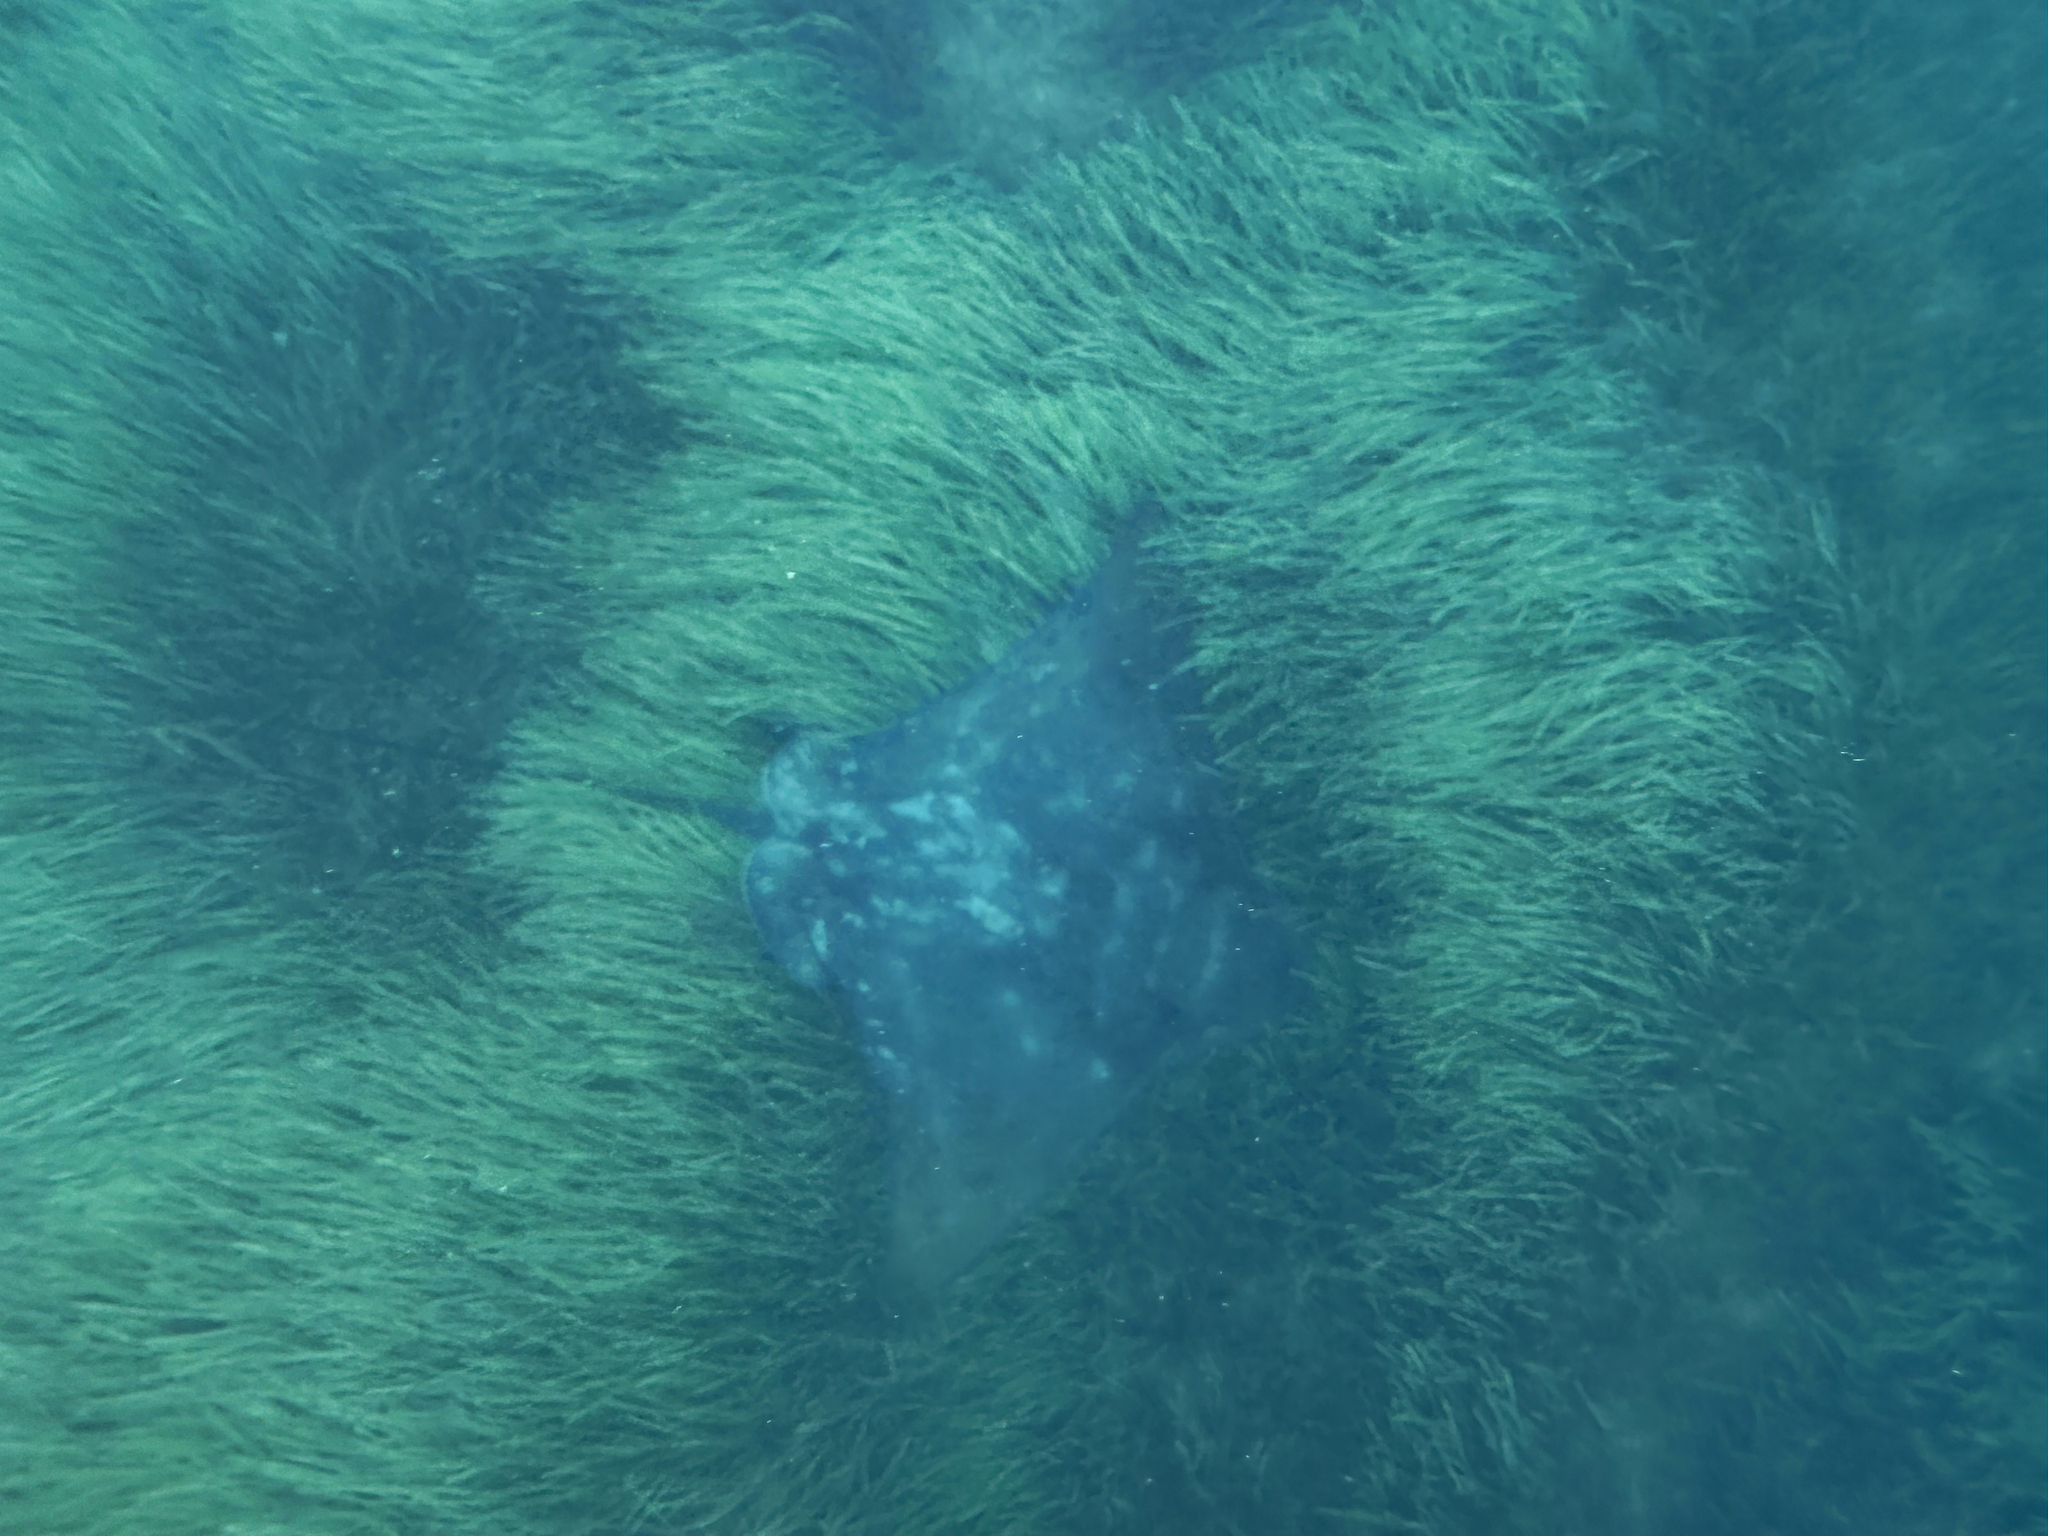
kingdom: Animalia
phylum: Chordata
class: Elasmobranchii
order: Myliobatiformes
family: Myliobatidae
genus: Myliobatis
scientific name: Myliobatis tenuicaudatus
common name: Eagle ray
